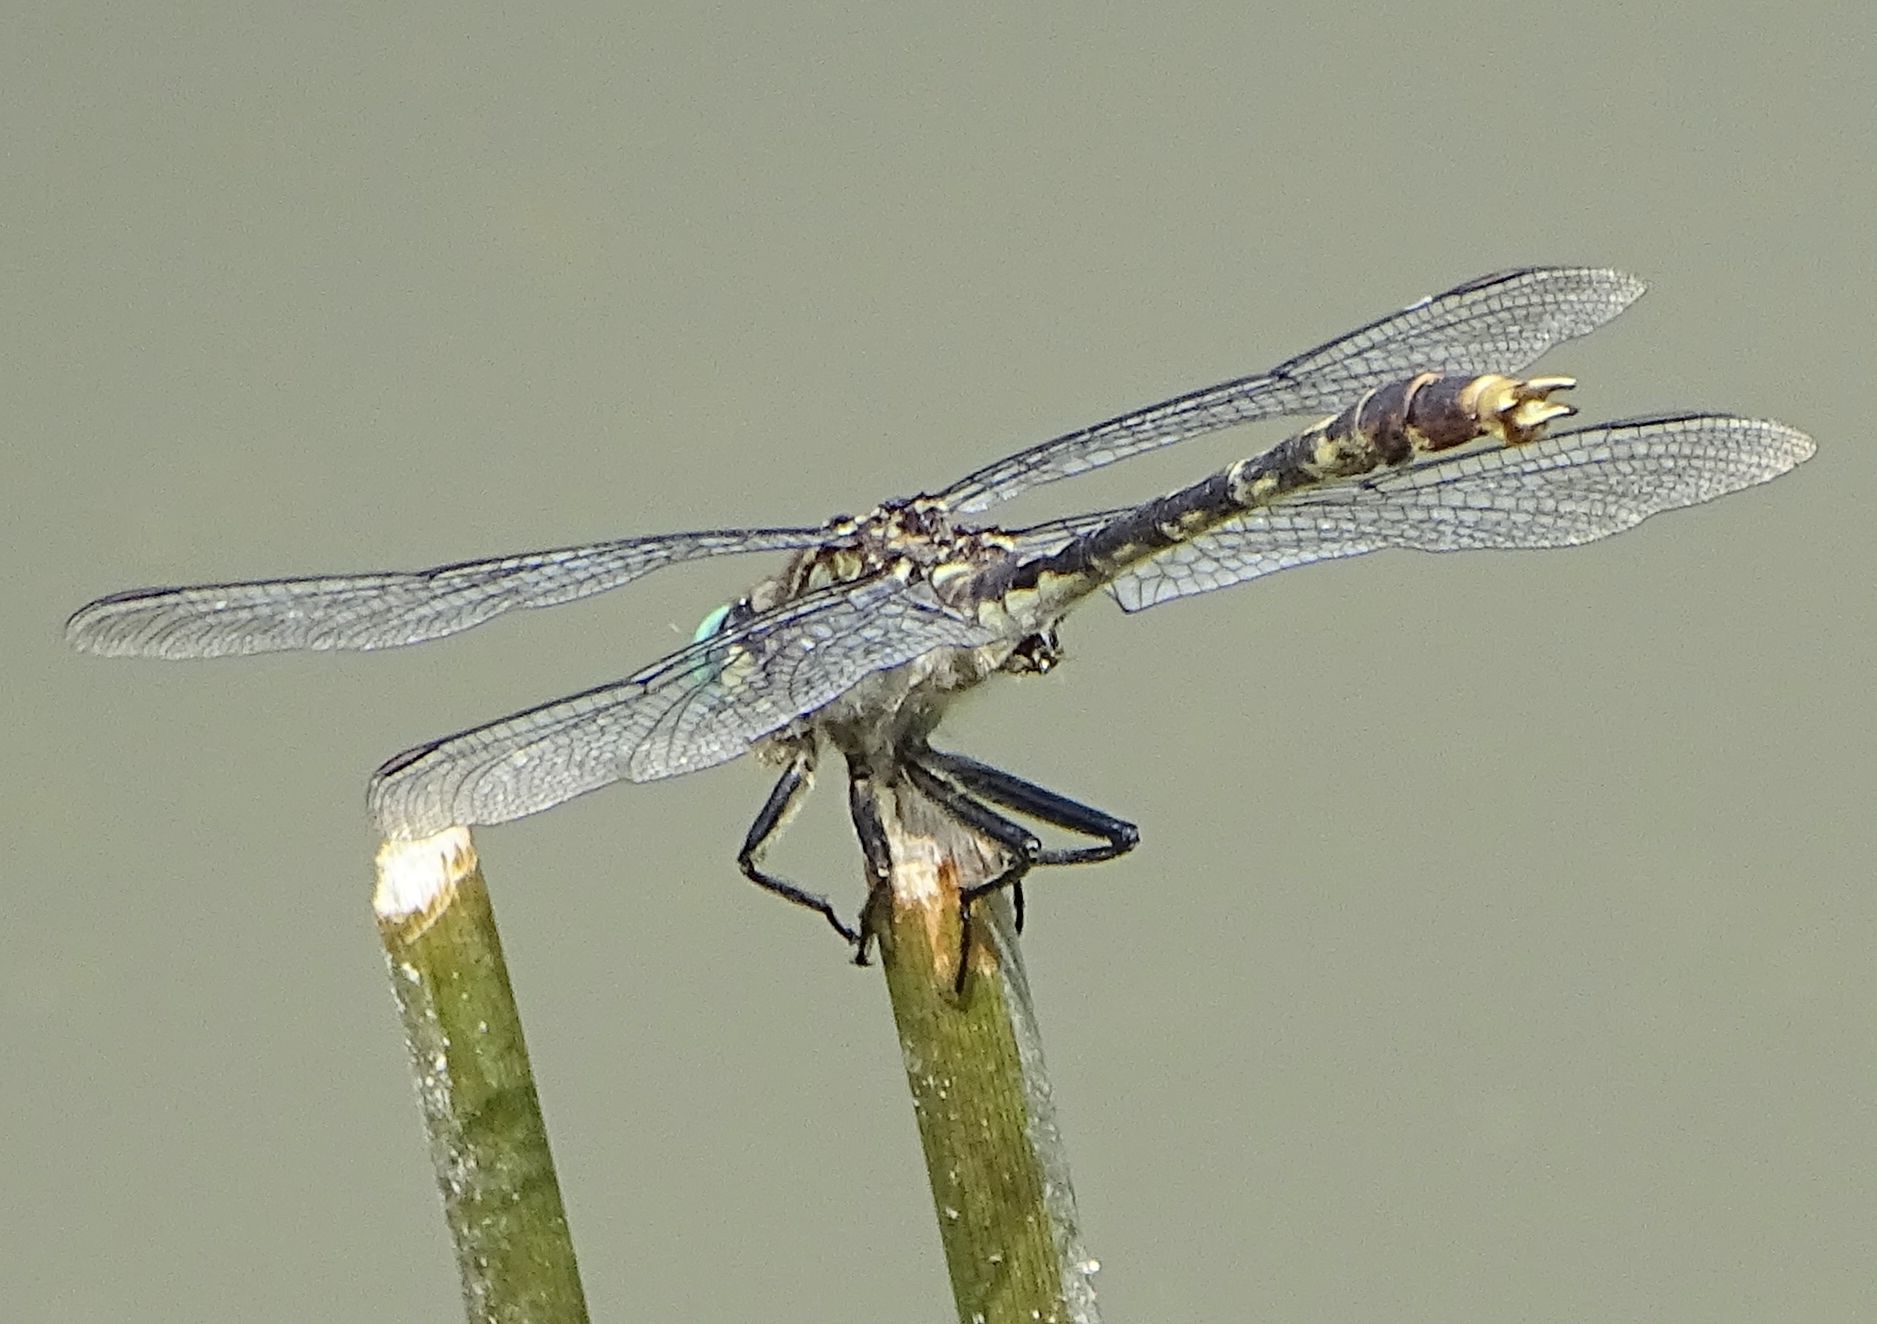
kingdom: Animalia
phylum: Arthropoda
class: Insecta
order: Odonata
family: Gomphidae
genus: Arigomphus
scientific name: Arigomphus villosipes
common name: Unicorn clubtail
